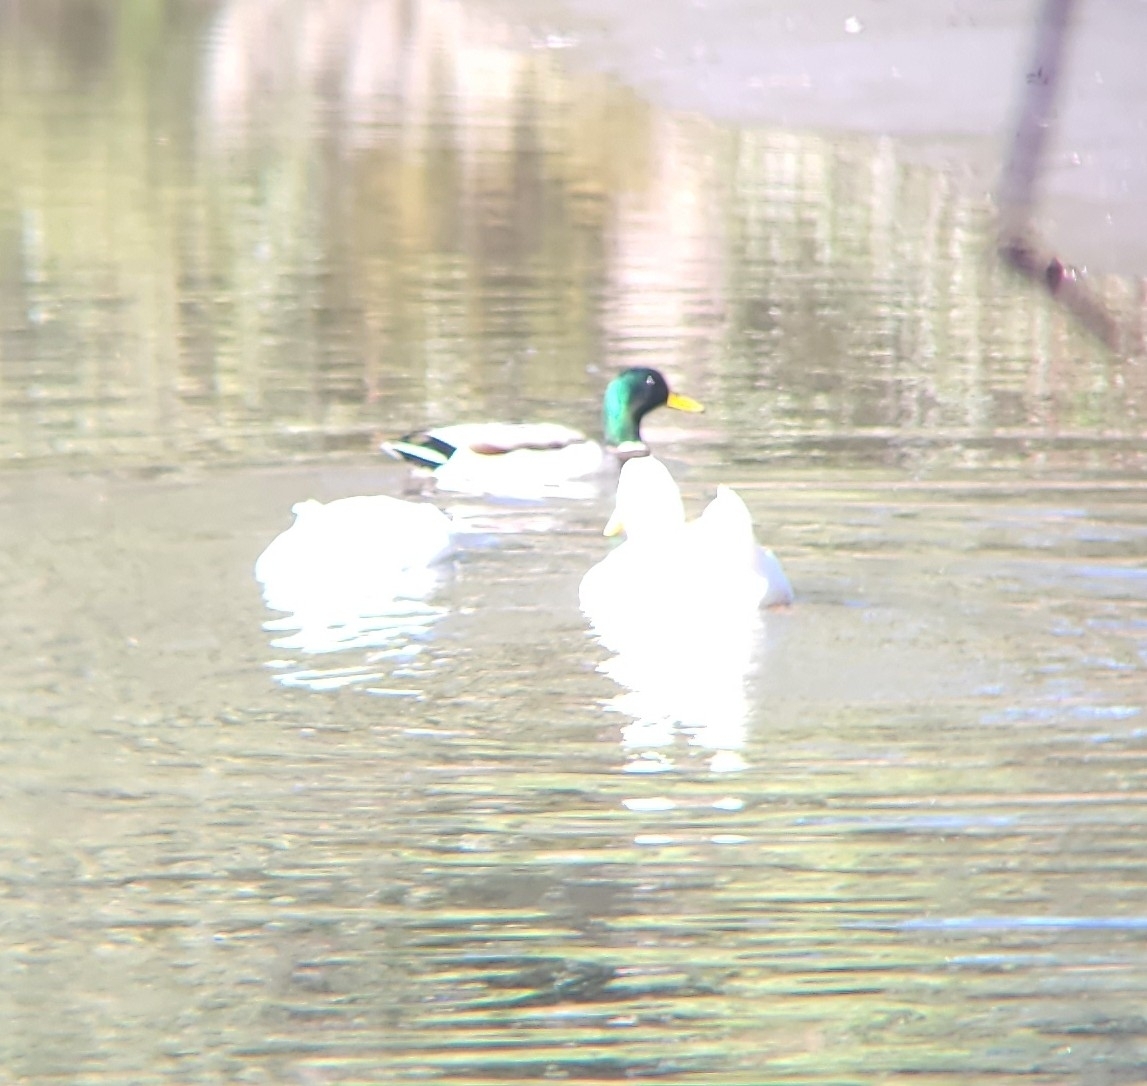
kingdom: Animalia
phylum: Chordata
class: Aves
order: Anseriformes
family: Anatidae
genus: Anas
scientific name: Anas platyrhynchos
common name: Mallard
